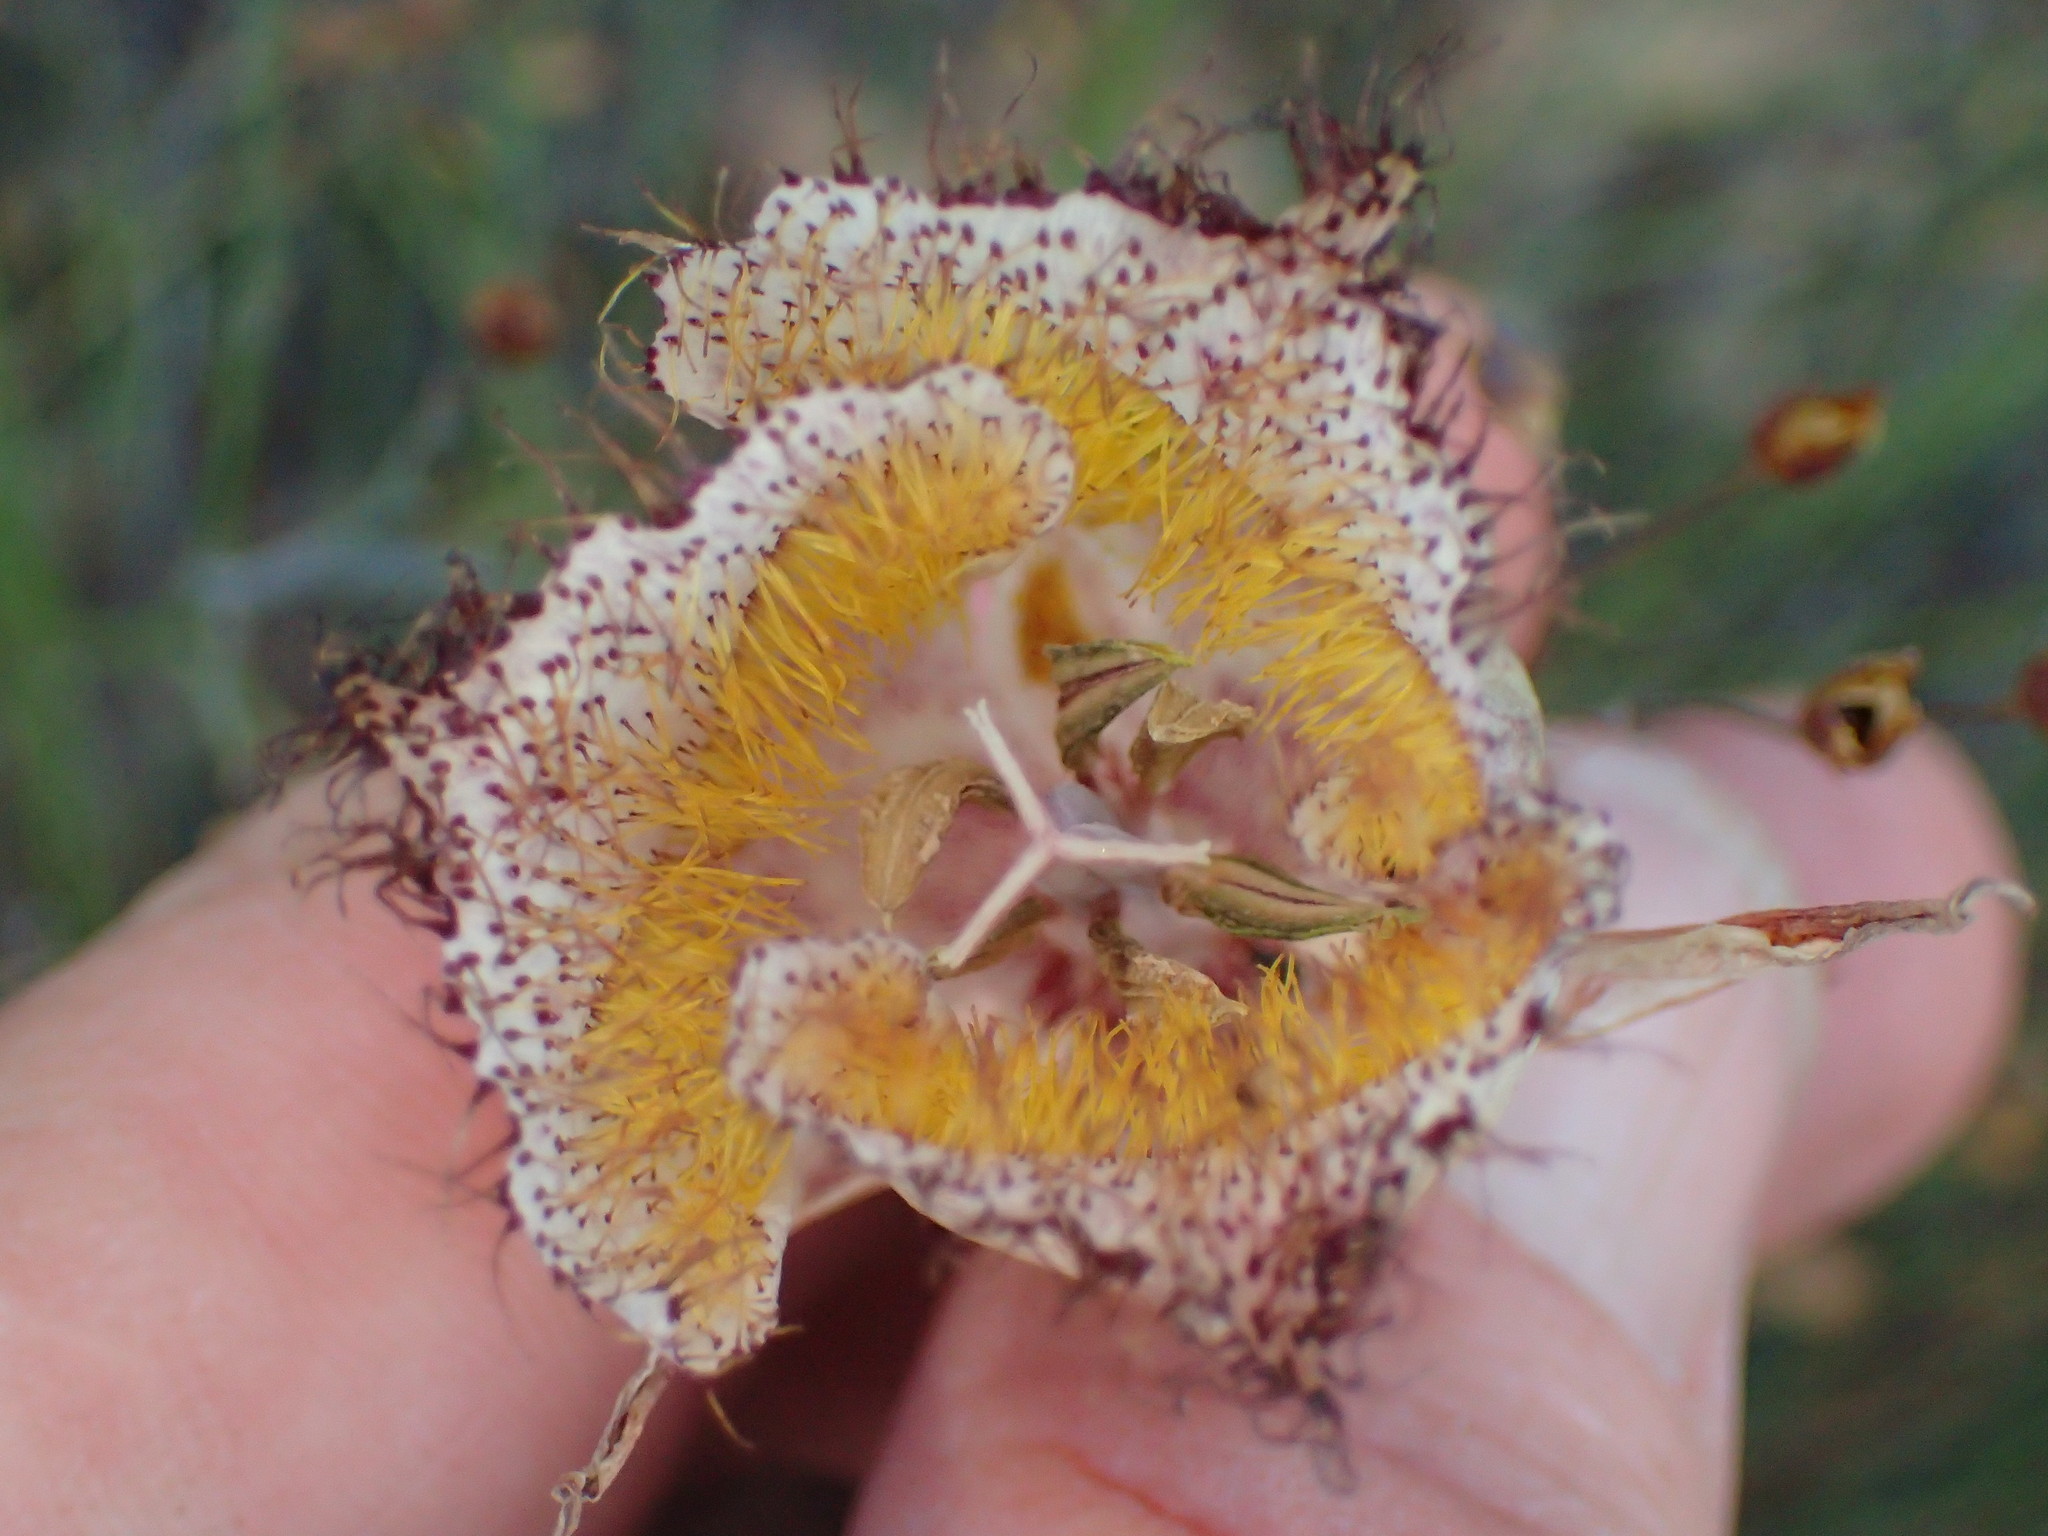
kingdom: Plantae
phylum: Tracheophyta
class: Liliopsida
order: Liliales
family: Liliaceae
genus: Calochortus
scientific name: Calochortus fimbriatus
